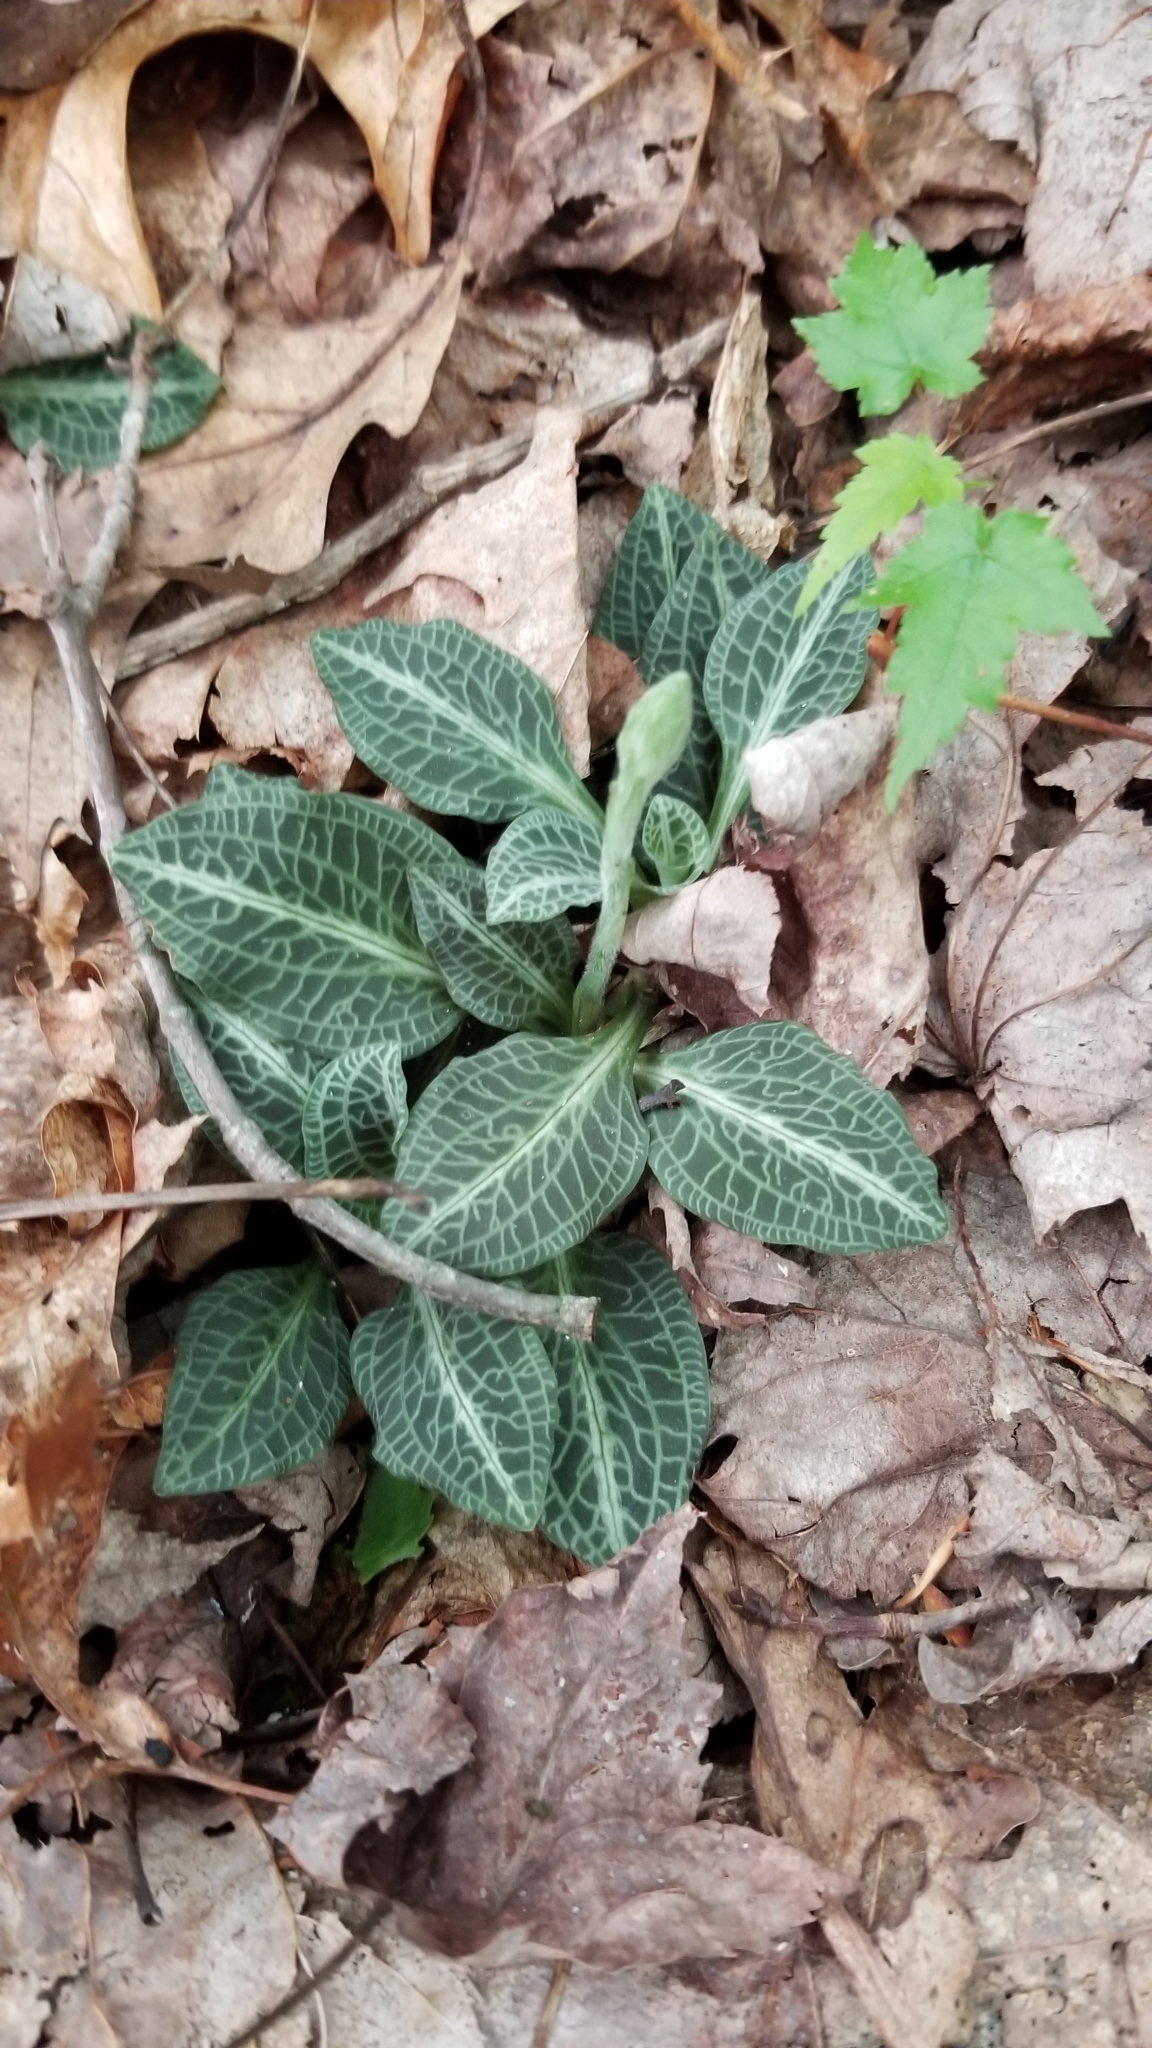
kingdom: Plantae
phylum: Tracheophyta
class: Liliopsida
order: Asparagales
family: Orchidaceae
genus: Goodyera
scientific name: Goodyera pubescens
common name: Downy rattlesnake-plantain
